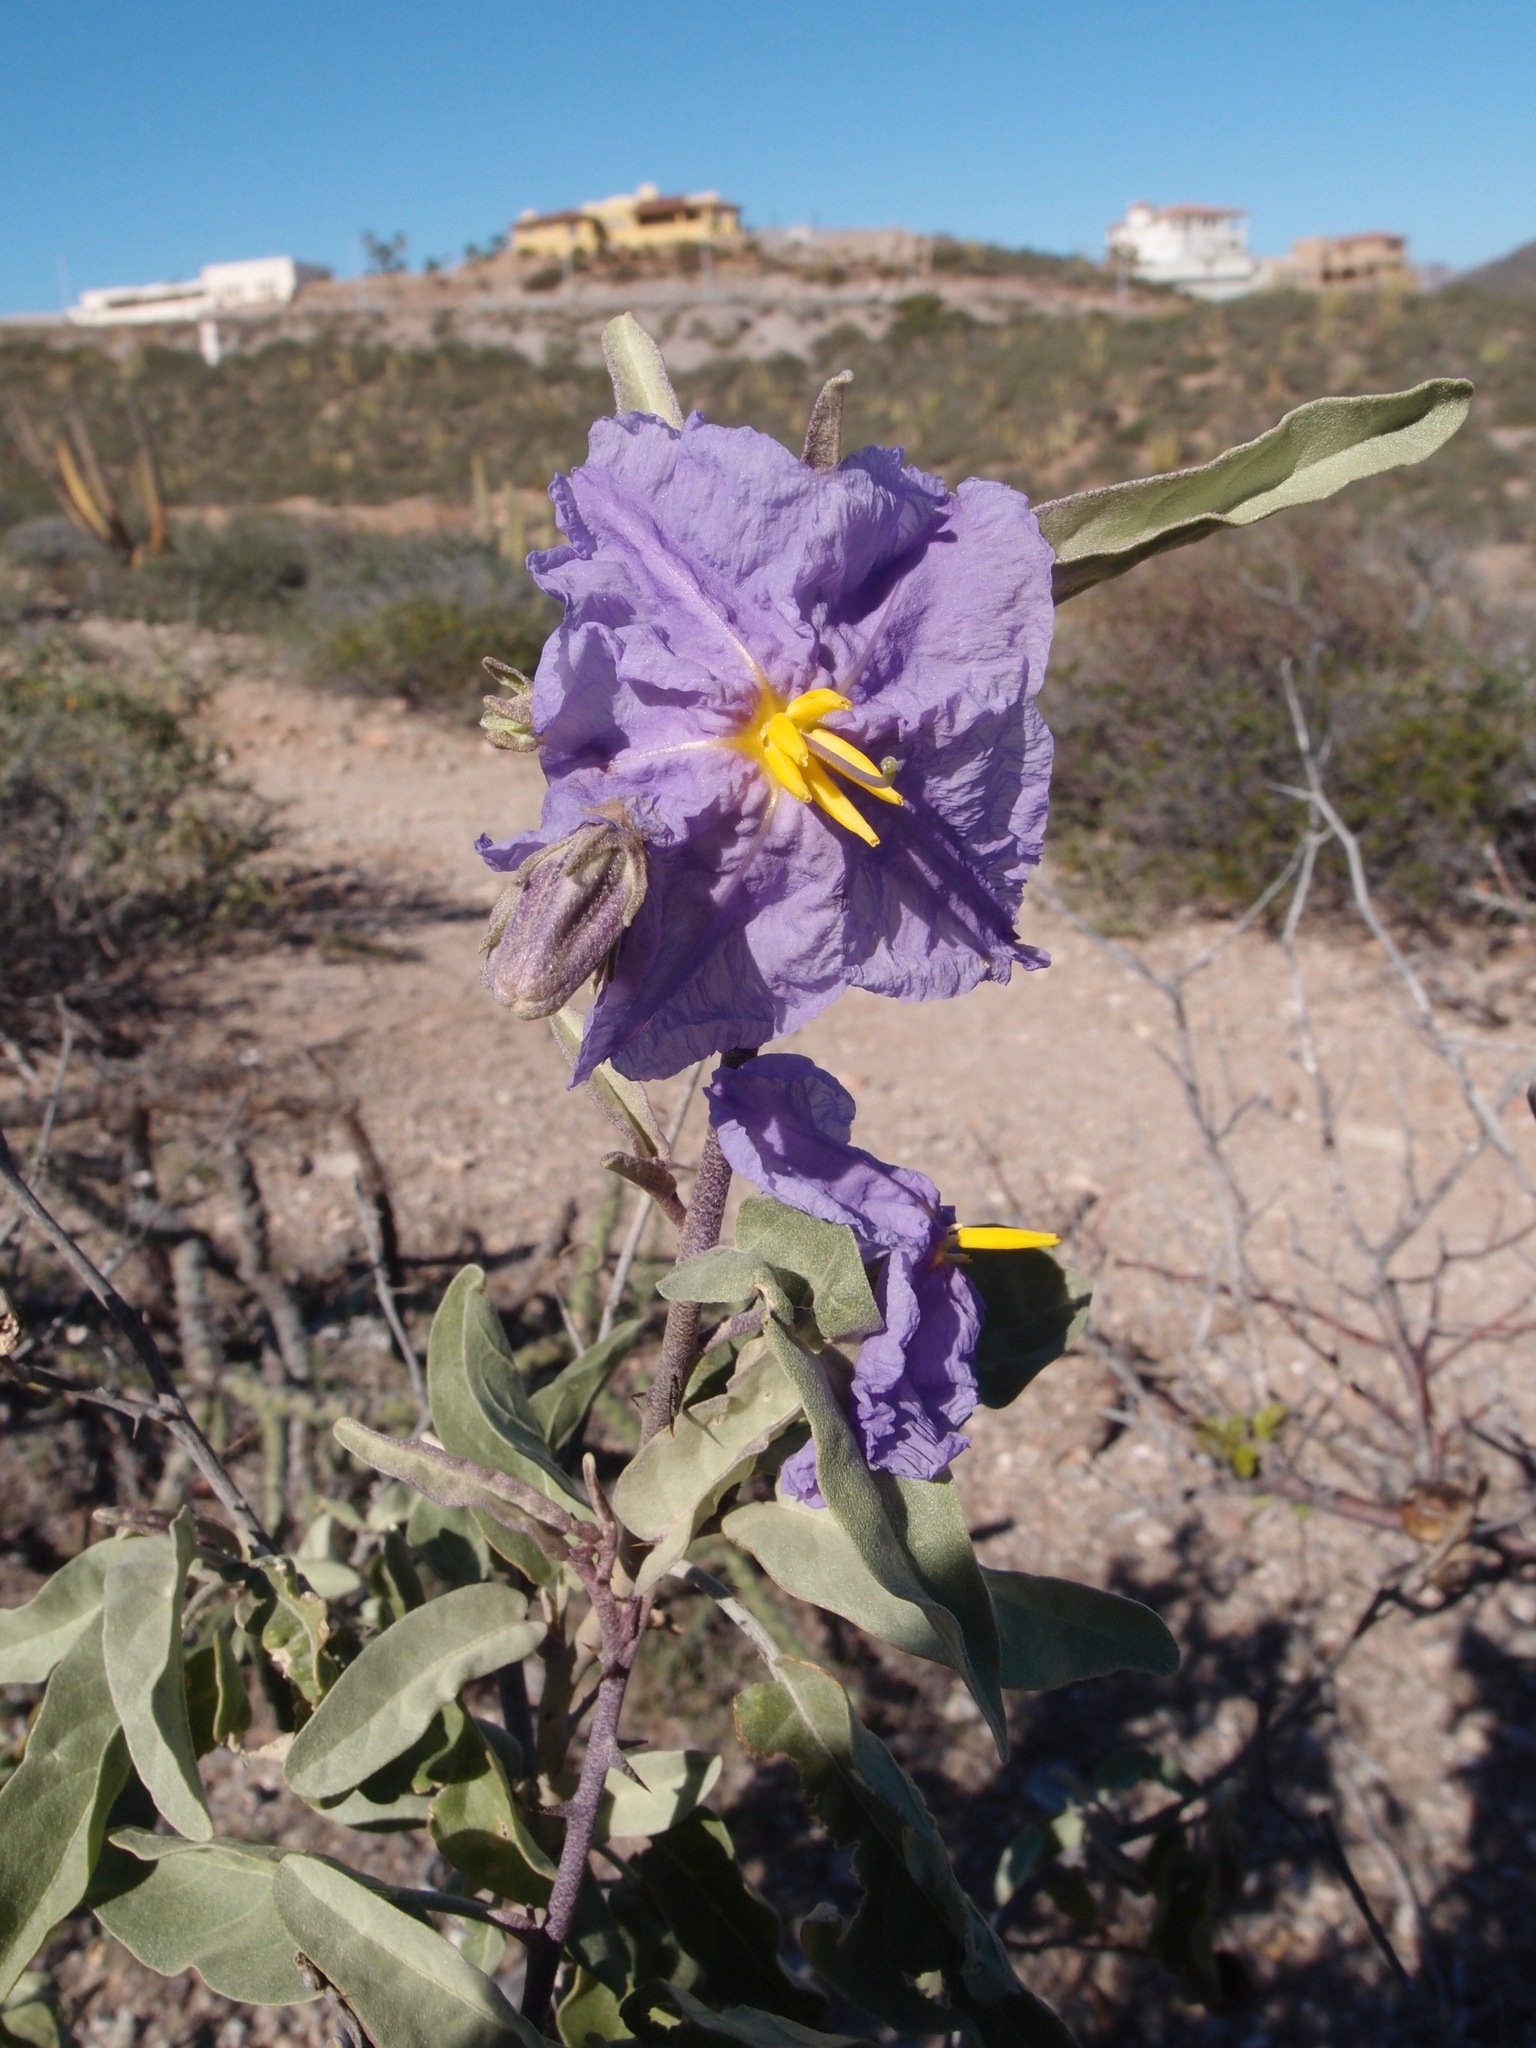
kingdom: Plantae
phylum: Tracheophyta
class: Magnoliopsida
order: Solanales
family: Solanaceae
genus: Solanum
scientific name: Solanum hindsianum
